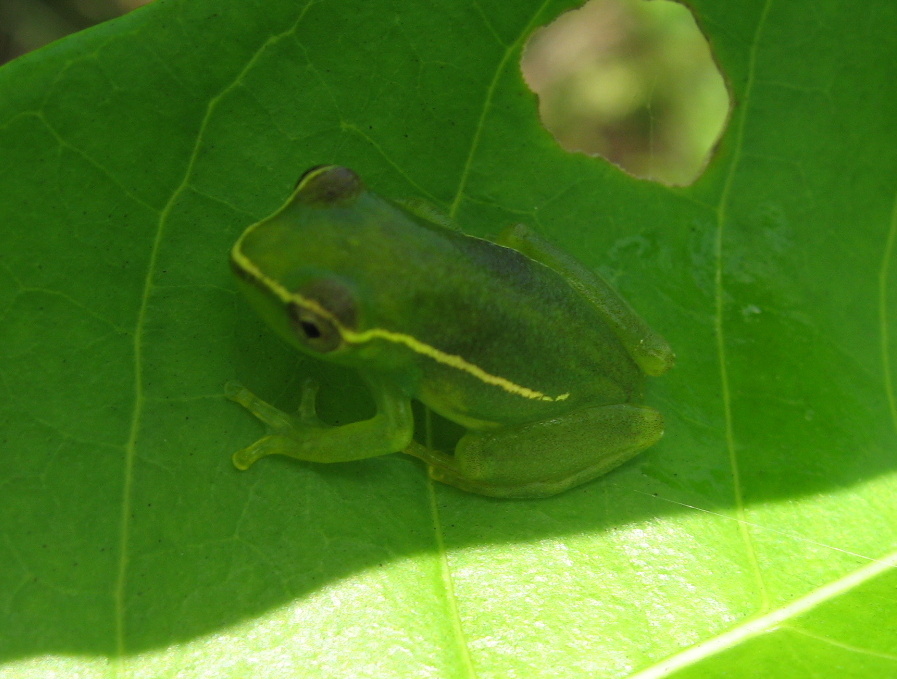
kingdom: Animalia
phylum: Chordata
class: Amphibia
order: Anura
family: Hyperoliidae
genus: Hyperolius
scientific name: Hyperolius igbettensis
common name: Igbetti long reed frog
